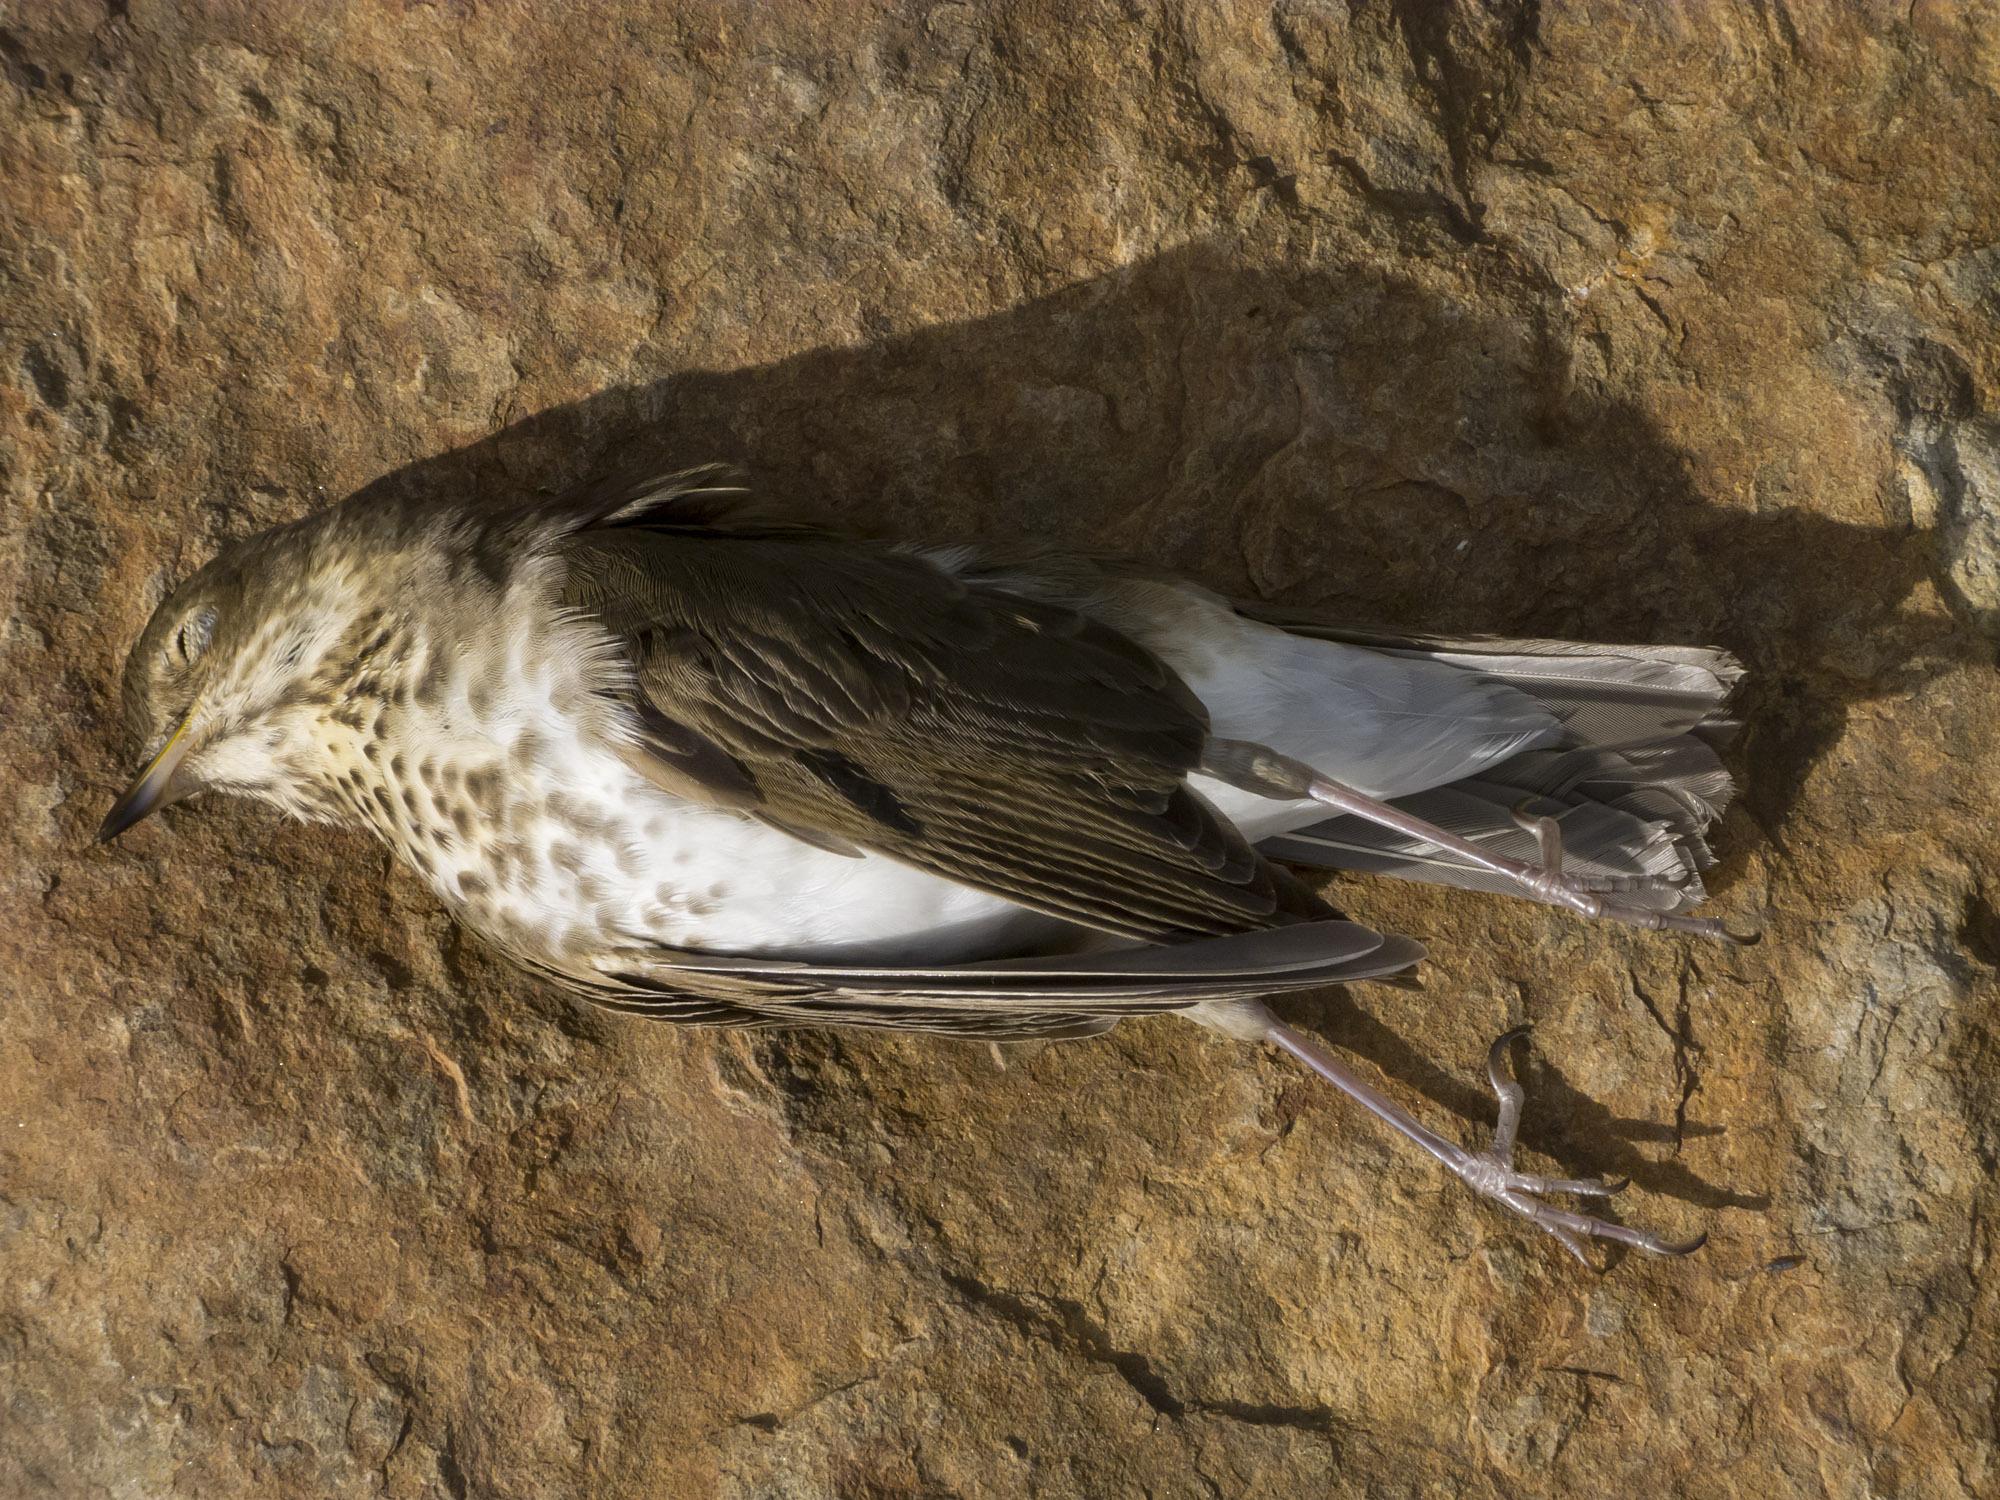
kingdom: Animalia
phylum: Chordata
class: Aves
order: Passeriformes
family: Turdidae
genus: Catharus
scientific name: Catharus ustulatus
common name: Swainson's thrush
